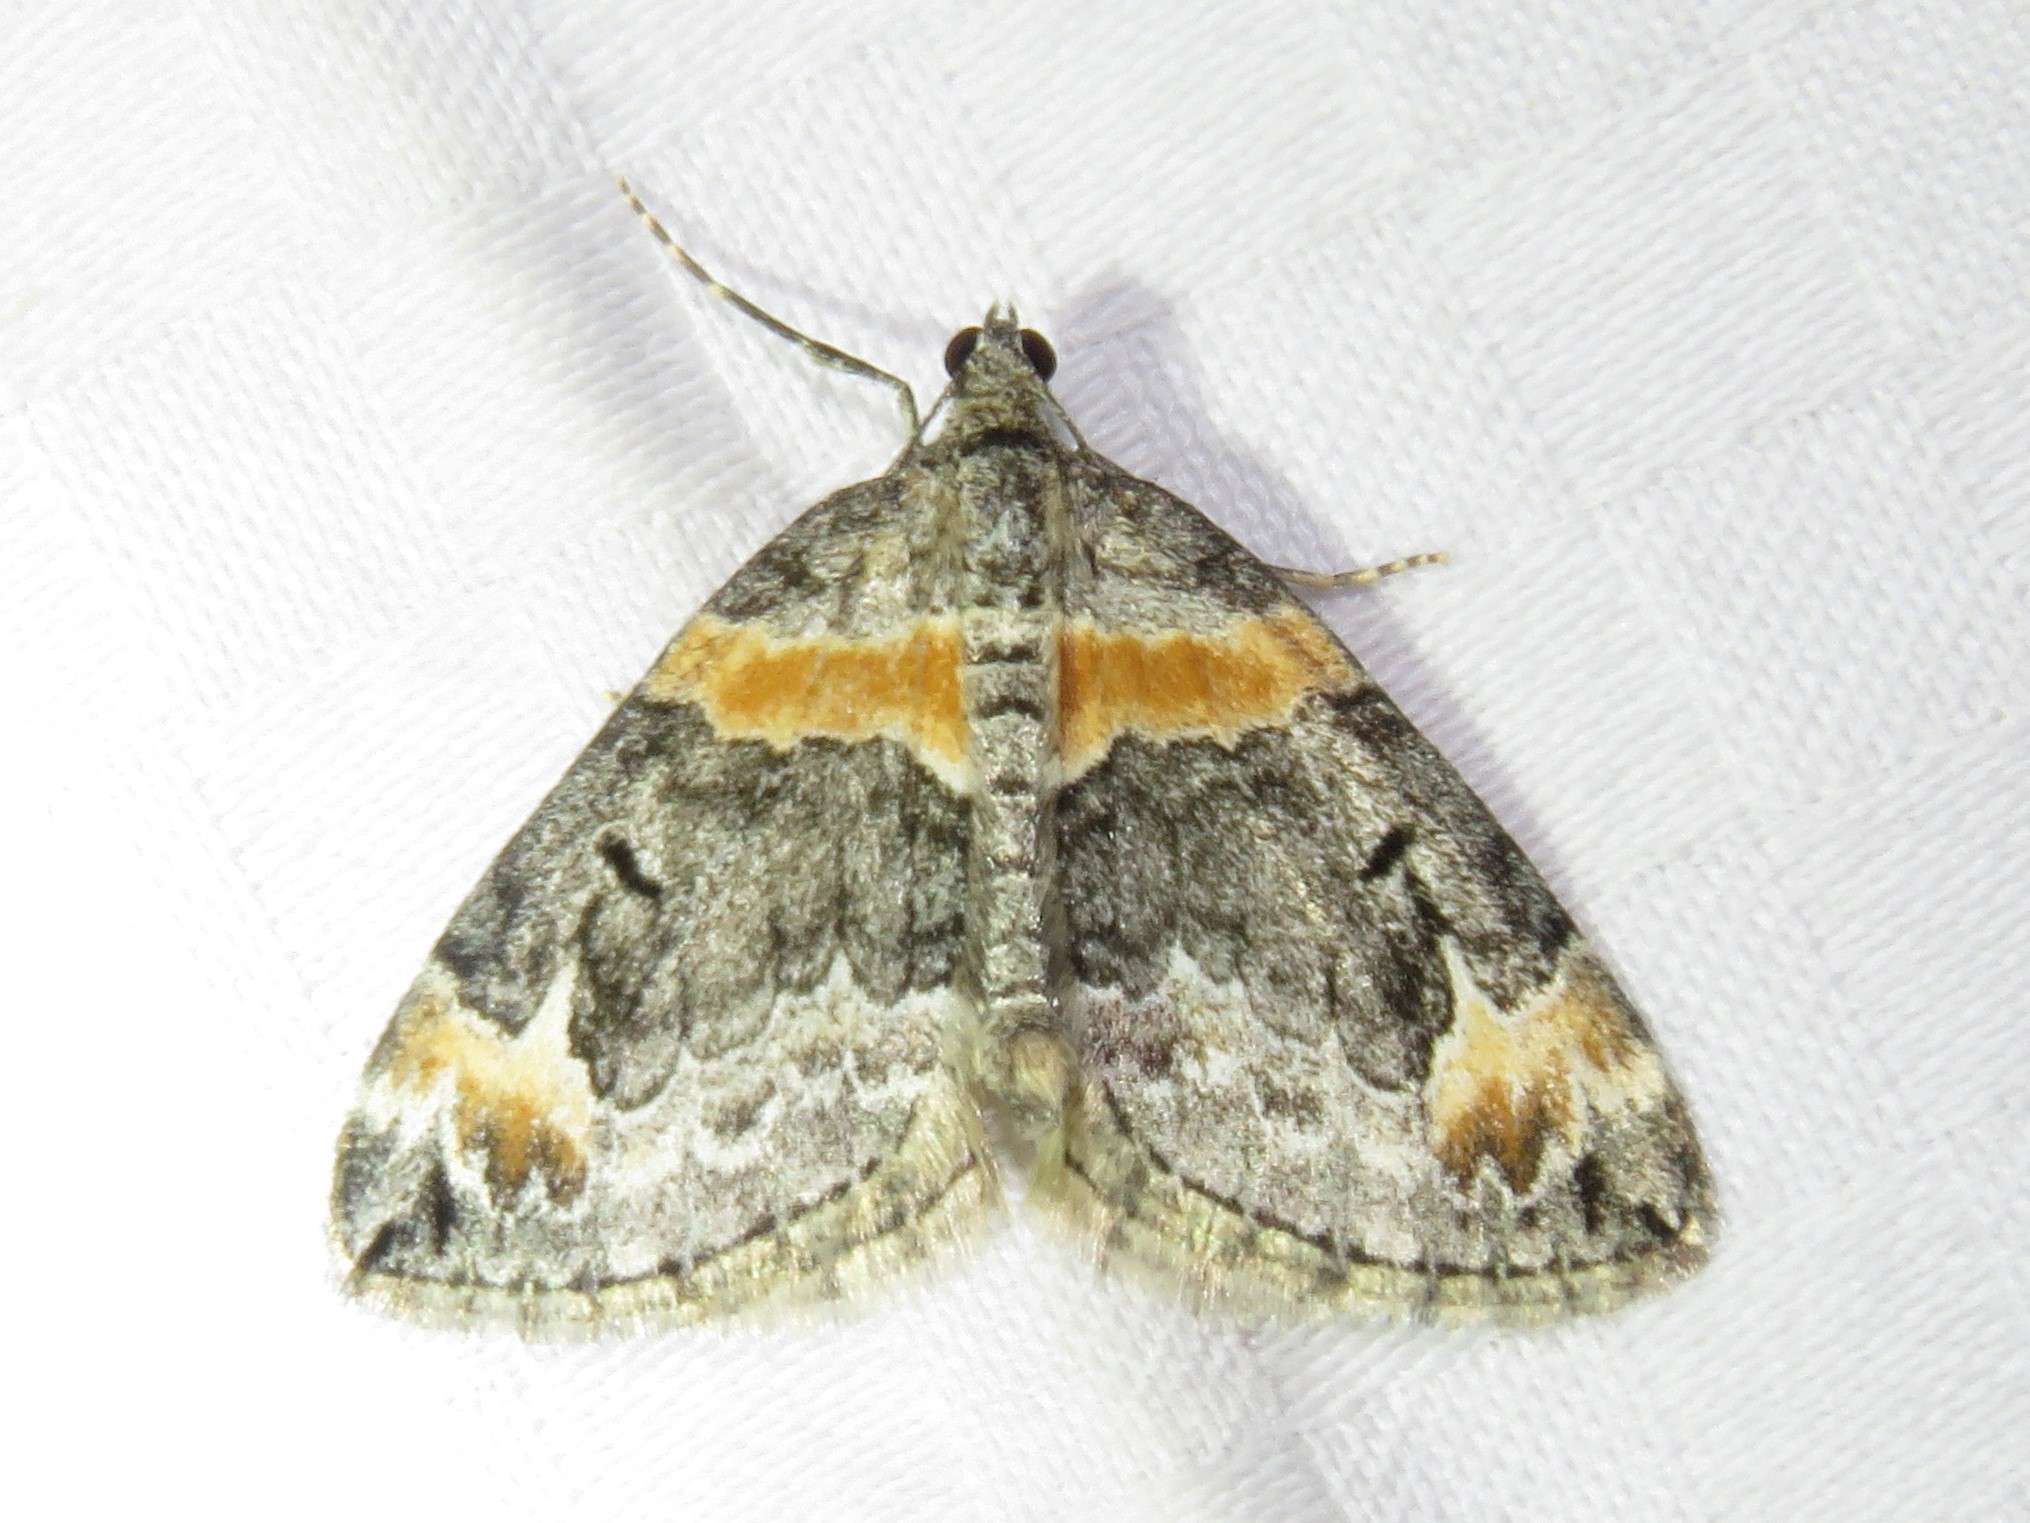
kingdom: Animalia
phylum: Arthropoda
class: Insecta
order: Lepidoptera
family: Geometridae
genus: Dysstroma
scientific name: Dysstroma hersiliata
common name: Orange-barred carpet
